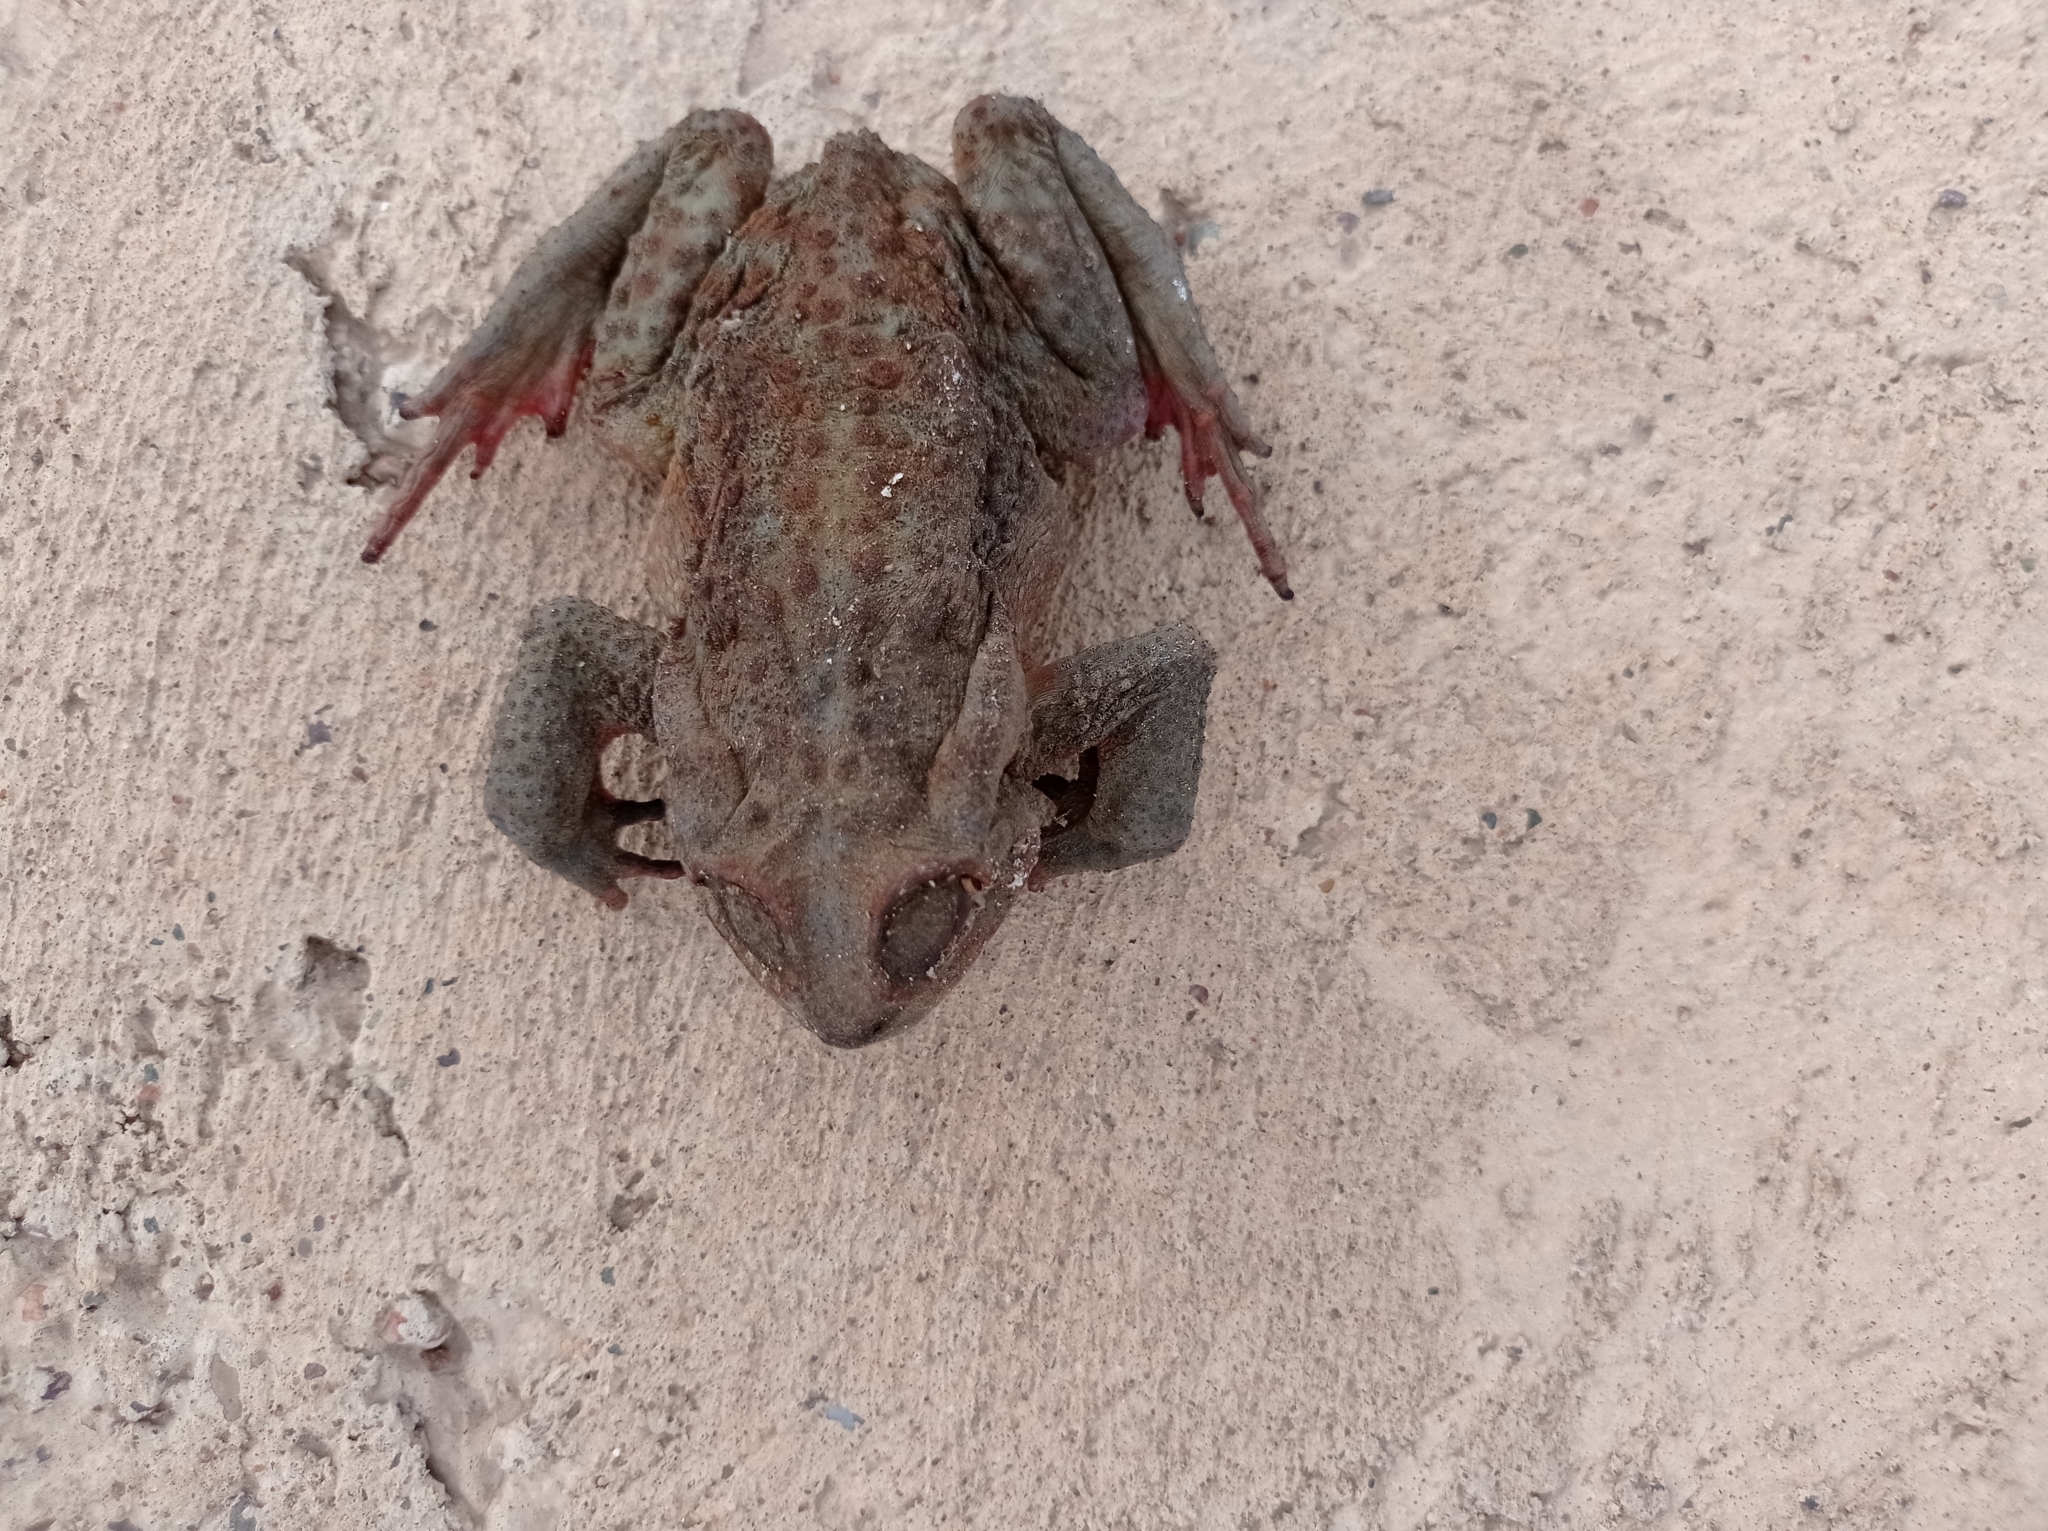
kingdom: Animalia
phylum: Chordata
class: Amphibia
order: Anura
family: Bufonidae
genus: Rhinella
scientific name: Rhinella arenarum
